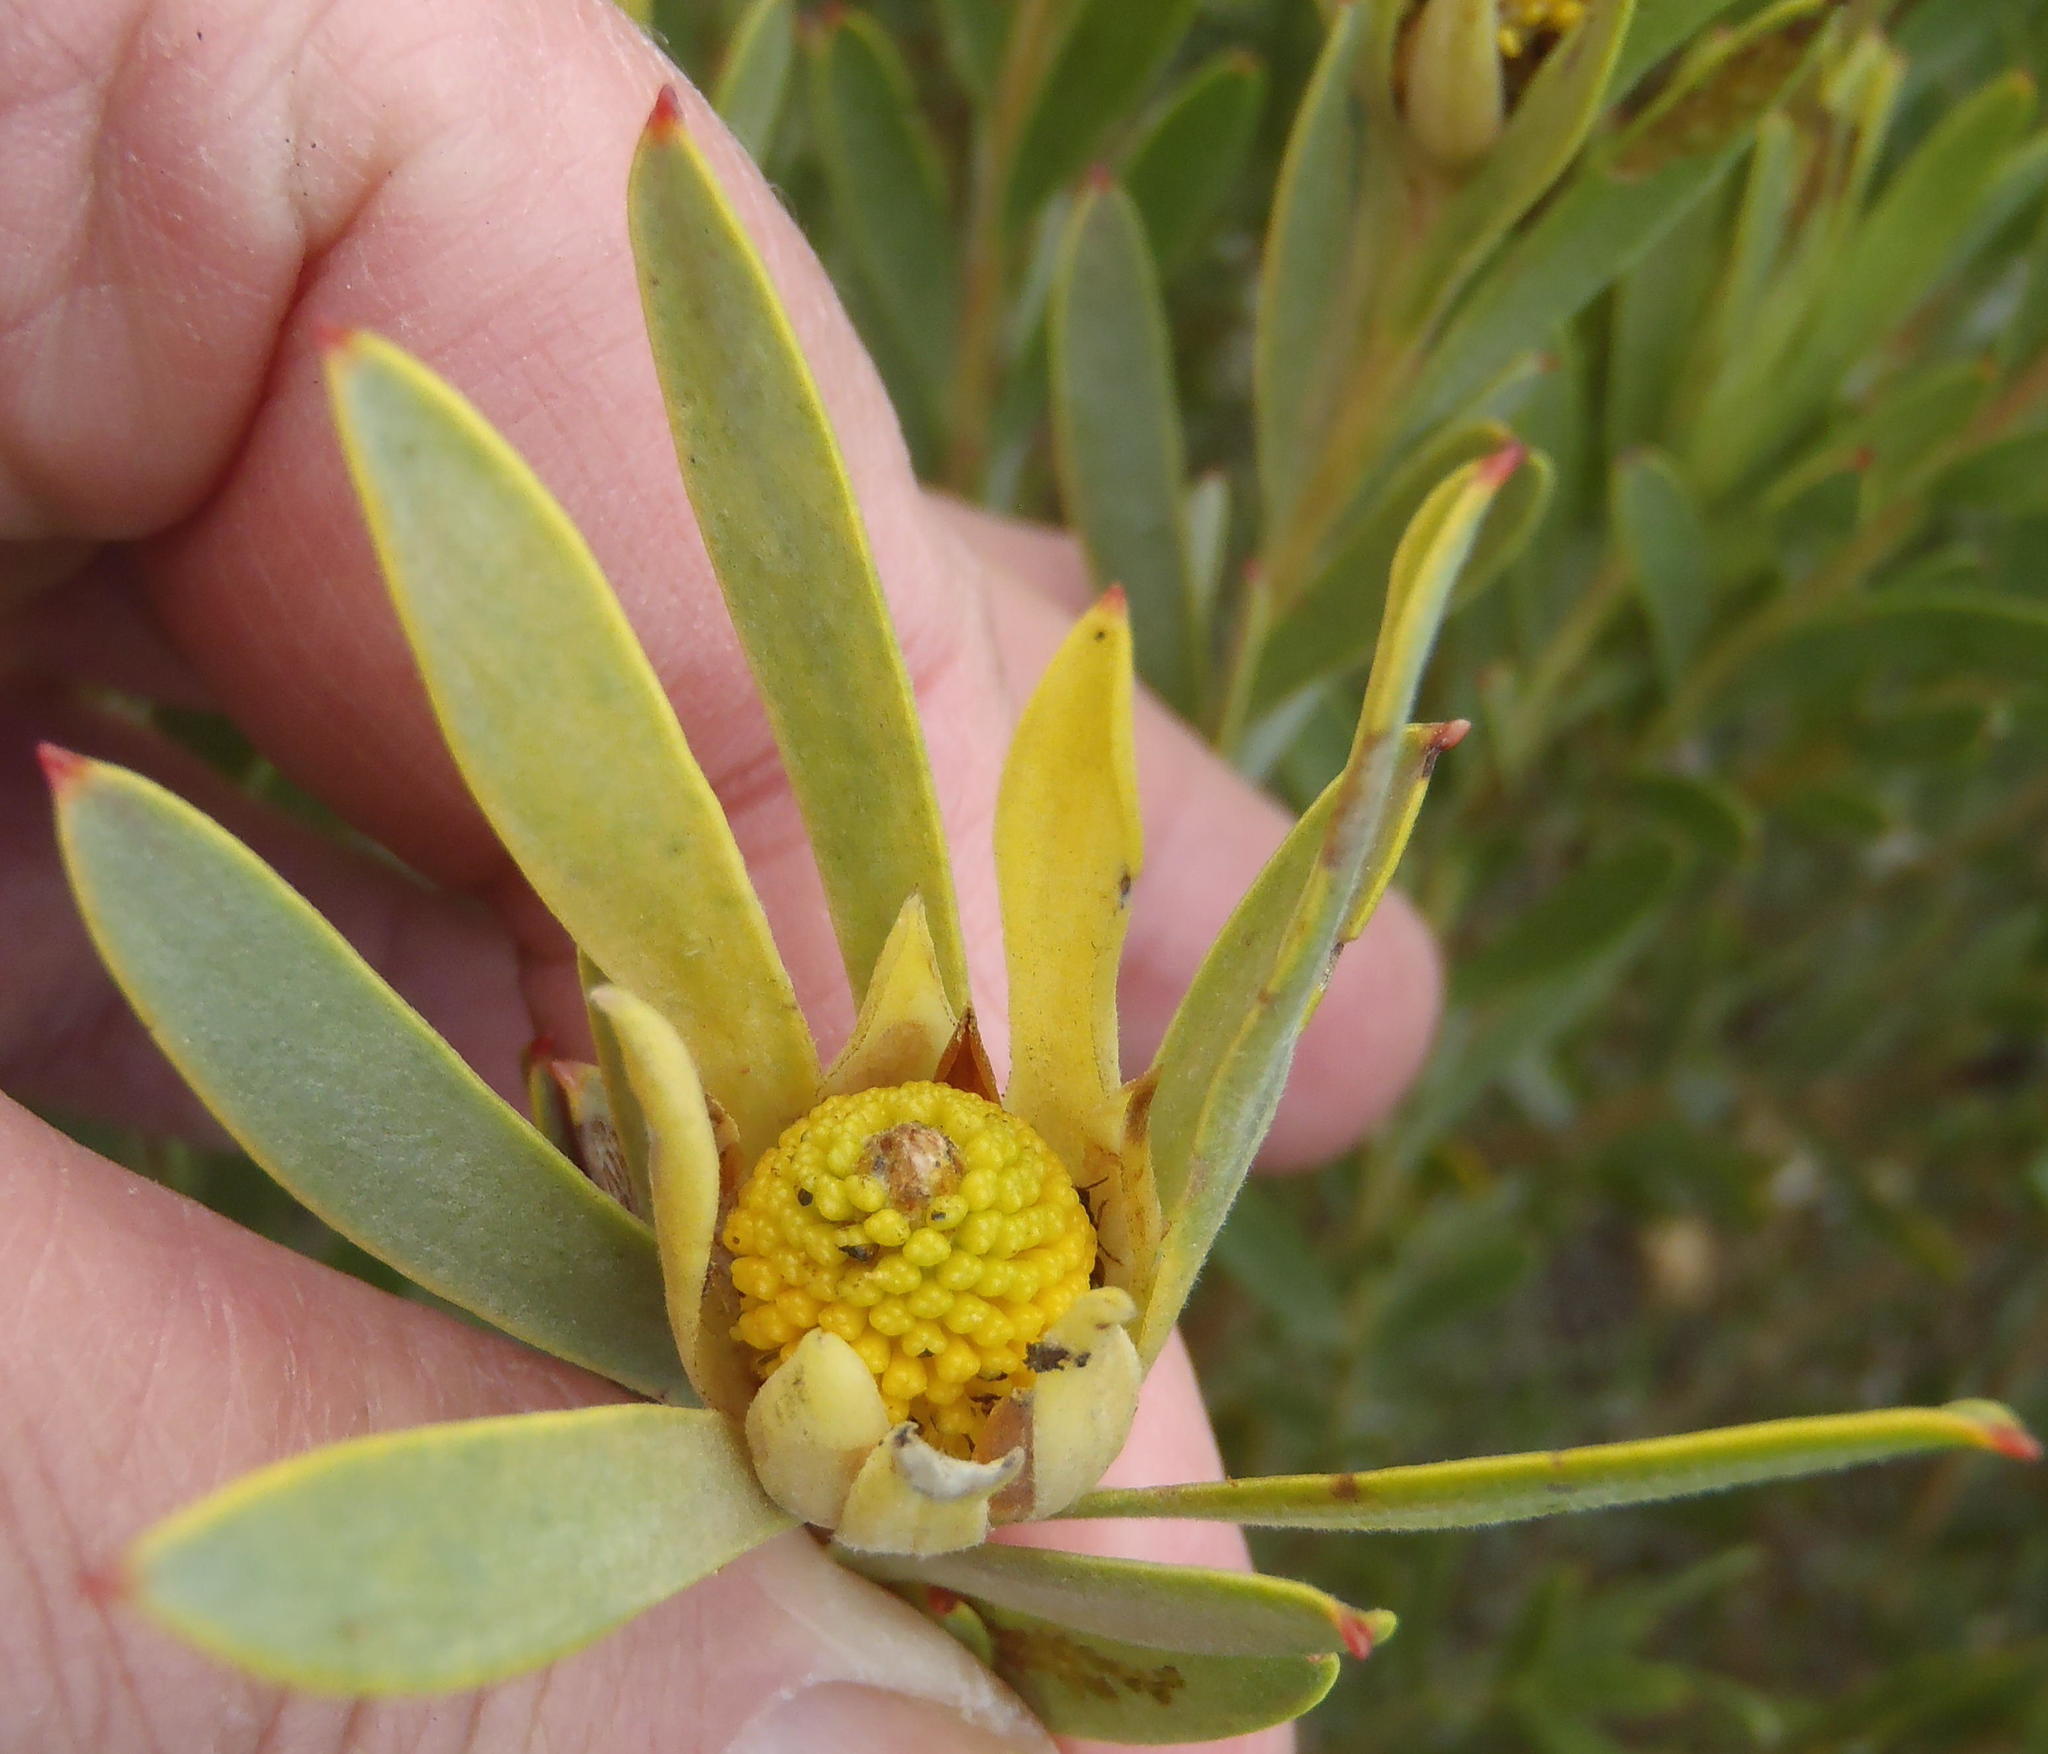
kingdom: Plantae
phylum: Tracheophyta
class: Magnoliopsida
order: Proteales
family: Proteaceae
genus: Leucadendron
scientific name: Leucadendron meridianum
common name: Limestone conebush
